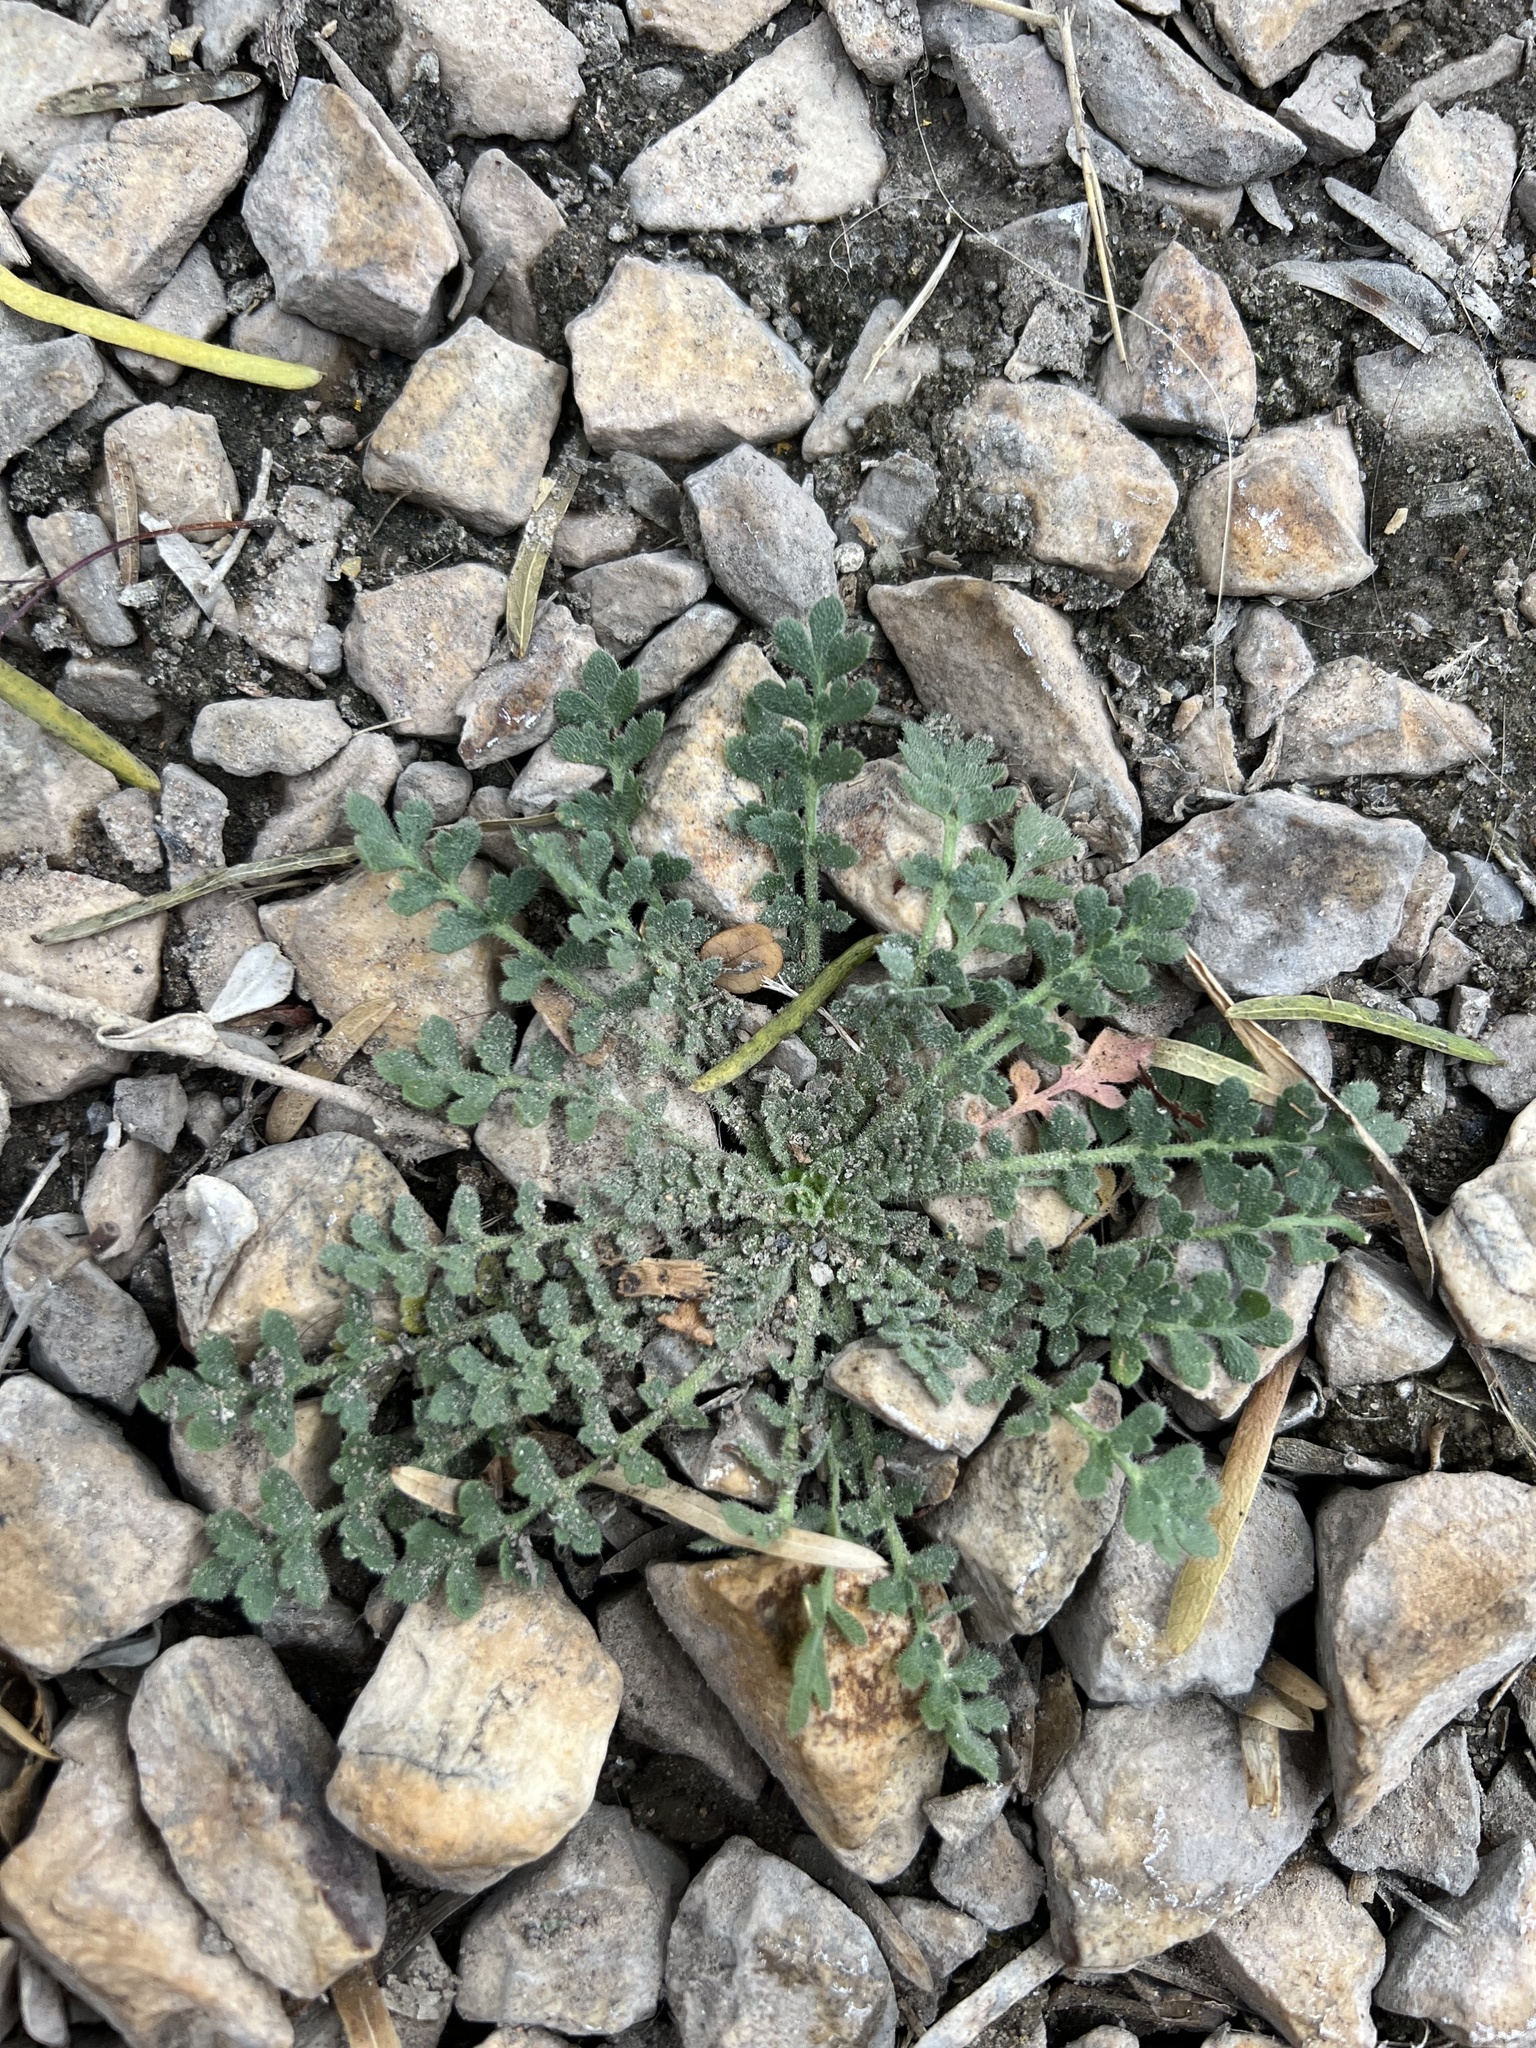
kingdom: Plantae
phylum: Tracheophyta
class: Magnoliopsida
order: Solanales
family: Solanaceae
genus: Solanum
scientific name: Solanum angustifolium
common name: Buffalobur nightshade
